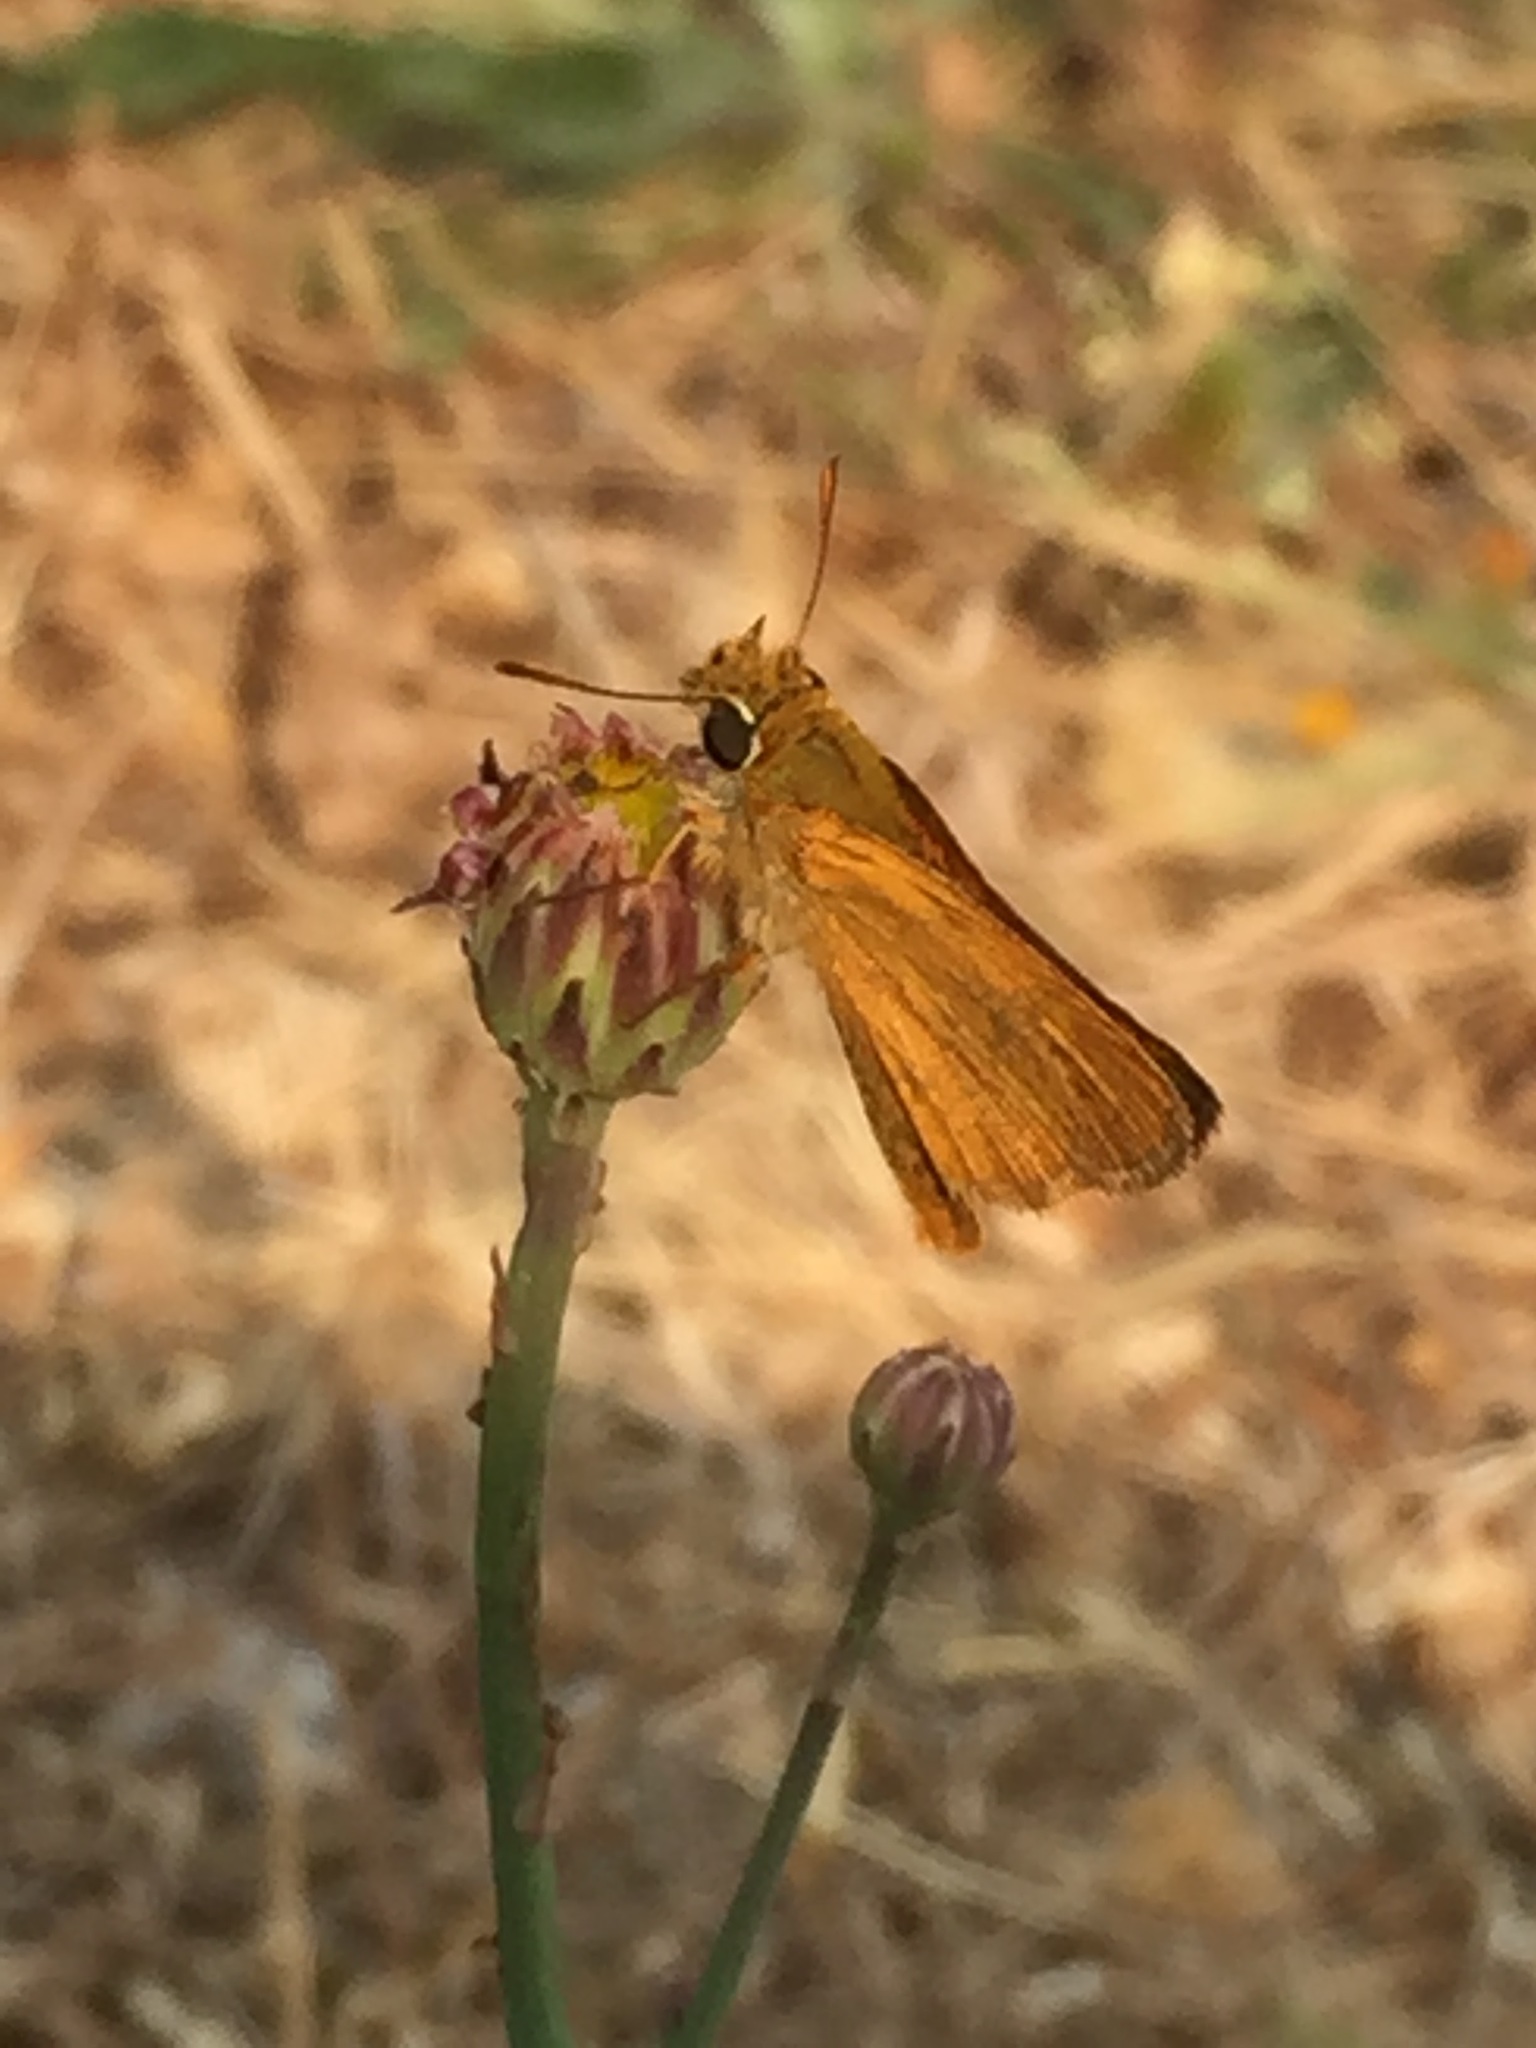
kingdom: Animalia
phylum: Arthropoda
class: Insecta
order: Lepidoptera
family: Hesperiidae
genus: Thymelicus
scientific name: Thymelicus acteon
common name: Lulworth skipper
